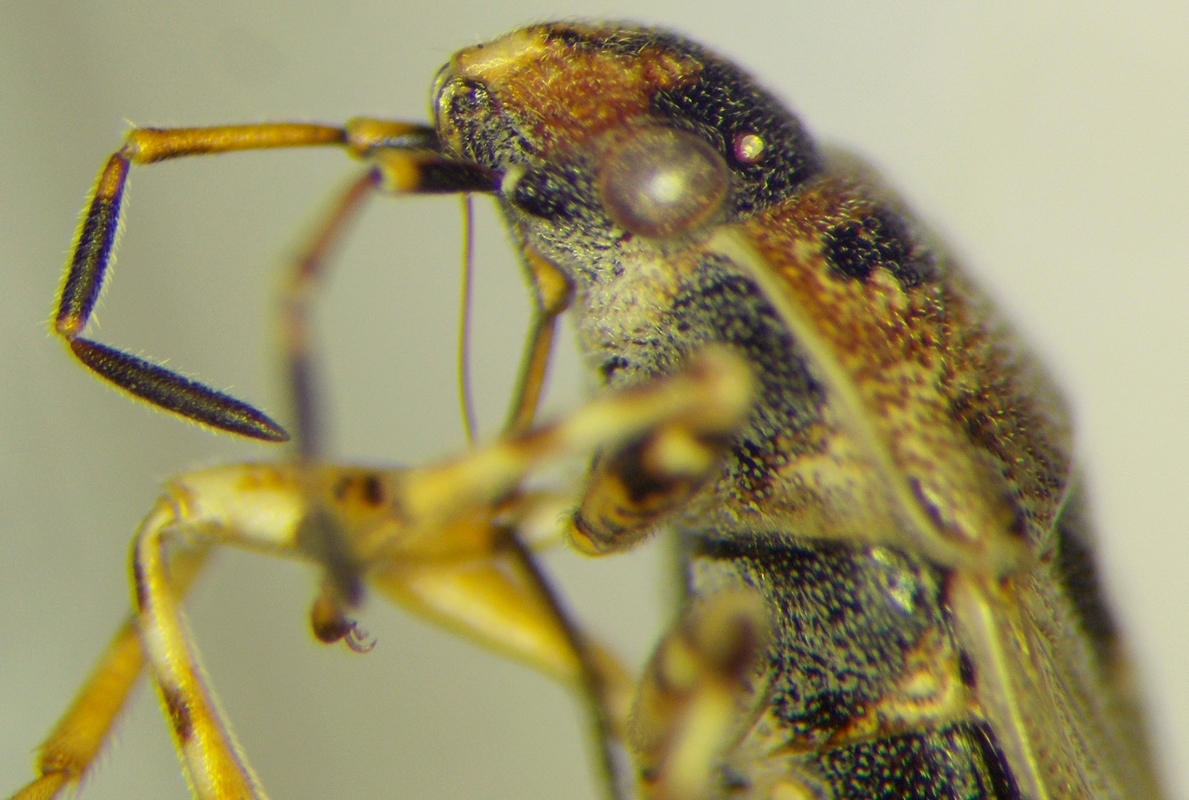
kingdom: Animalia
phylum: Arthropoda
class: Insecta
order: Hemiptera
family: Heterogastridae
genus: Platyplax
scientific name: Platyplax salviae
